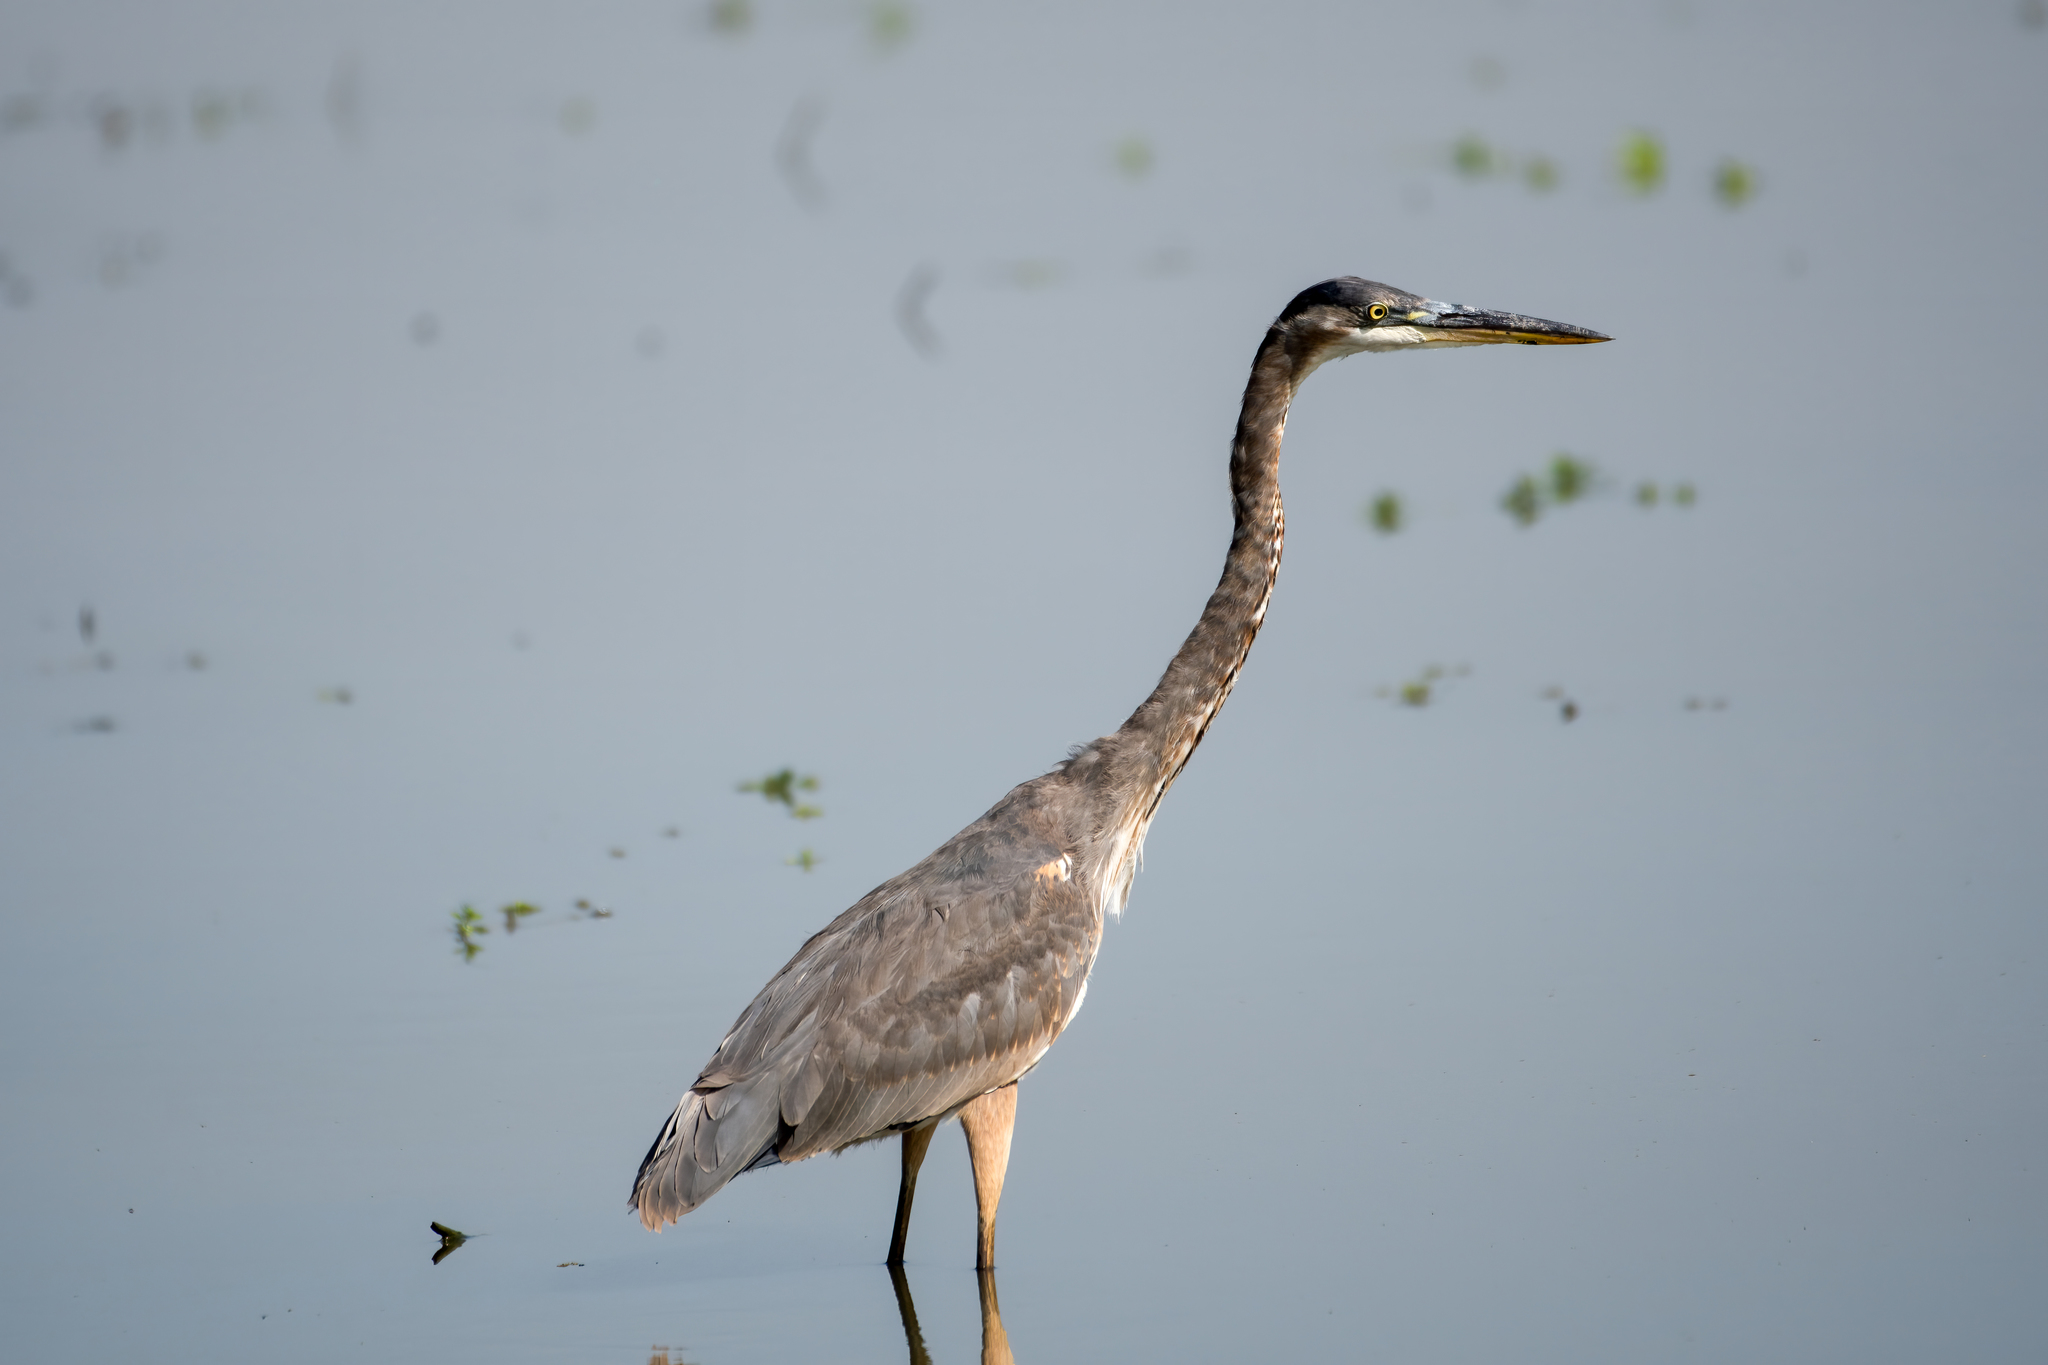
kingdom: Animalia
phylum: Chordata
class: Aves
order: Pelecaniformes
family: Ardeidae
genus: Ardea
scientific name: Ardea herodias
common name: Great blue heron
